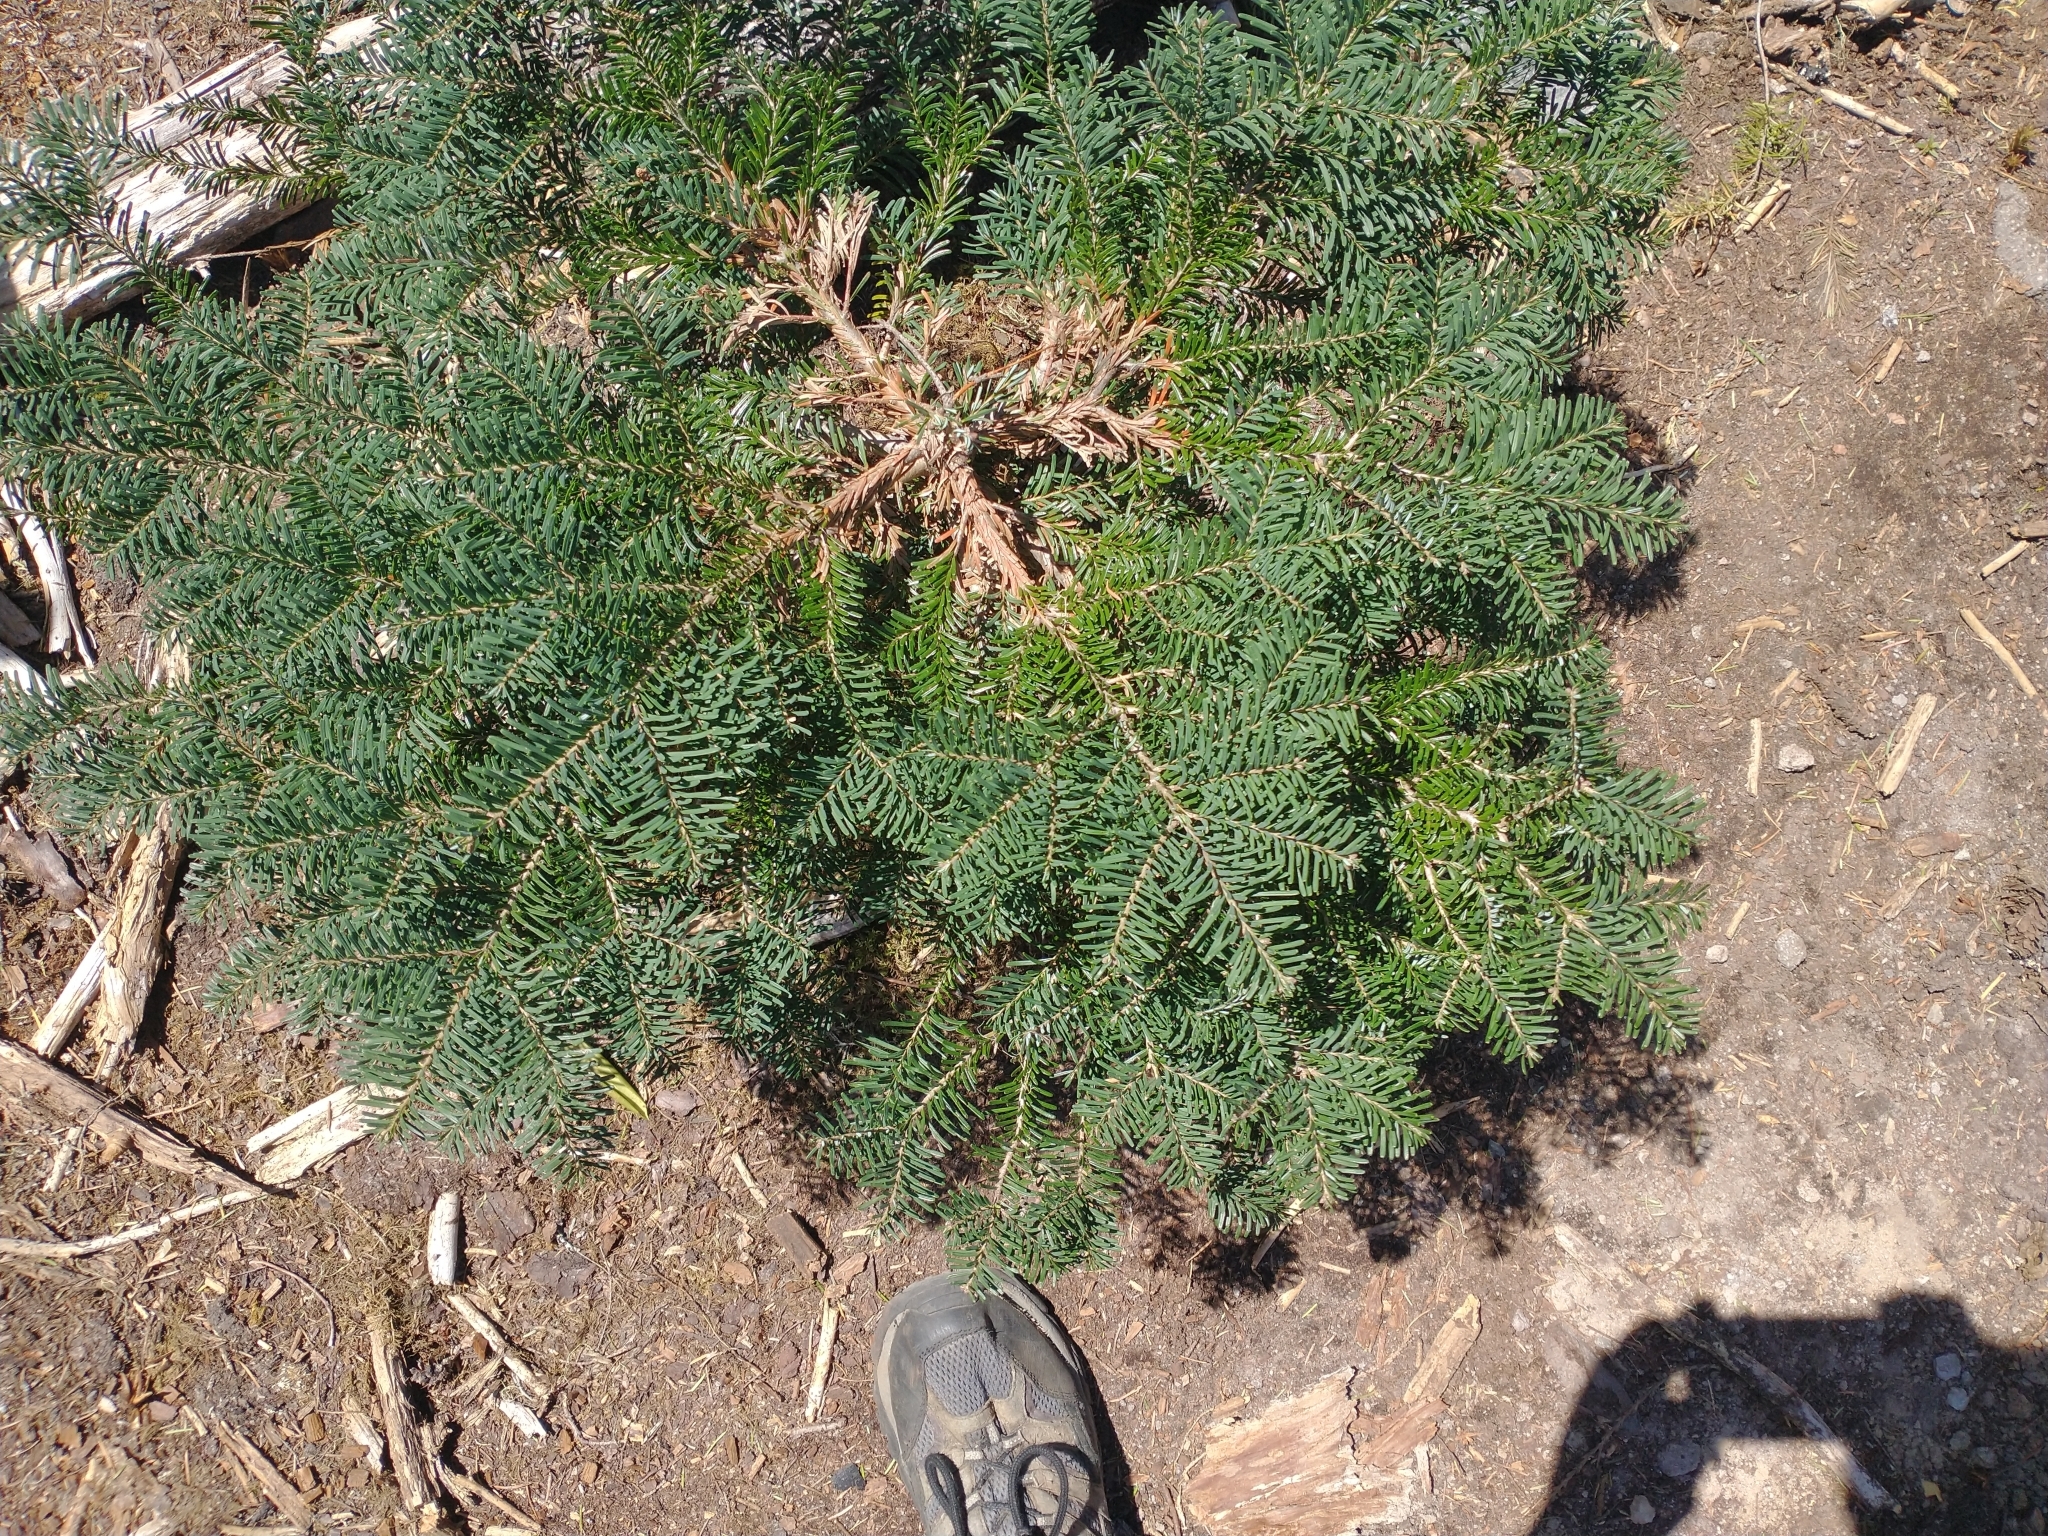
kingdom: Plantae
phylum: Tracheophyta
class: Pinopsida
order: Pinales
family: Pinaceae
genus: Abies
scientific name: Abies amabilis
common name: Pacific silver fir
